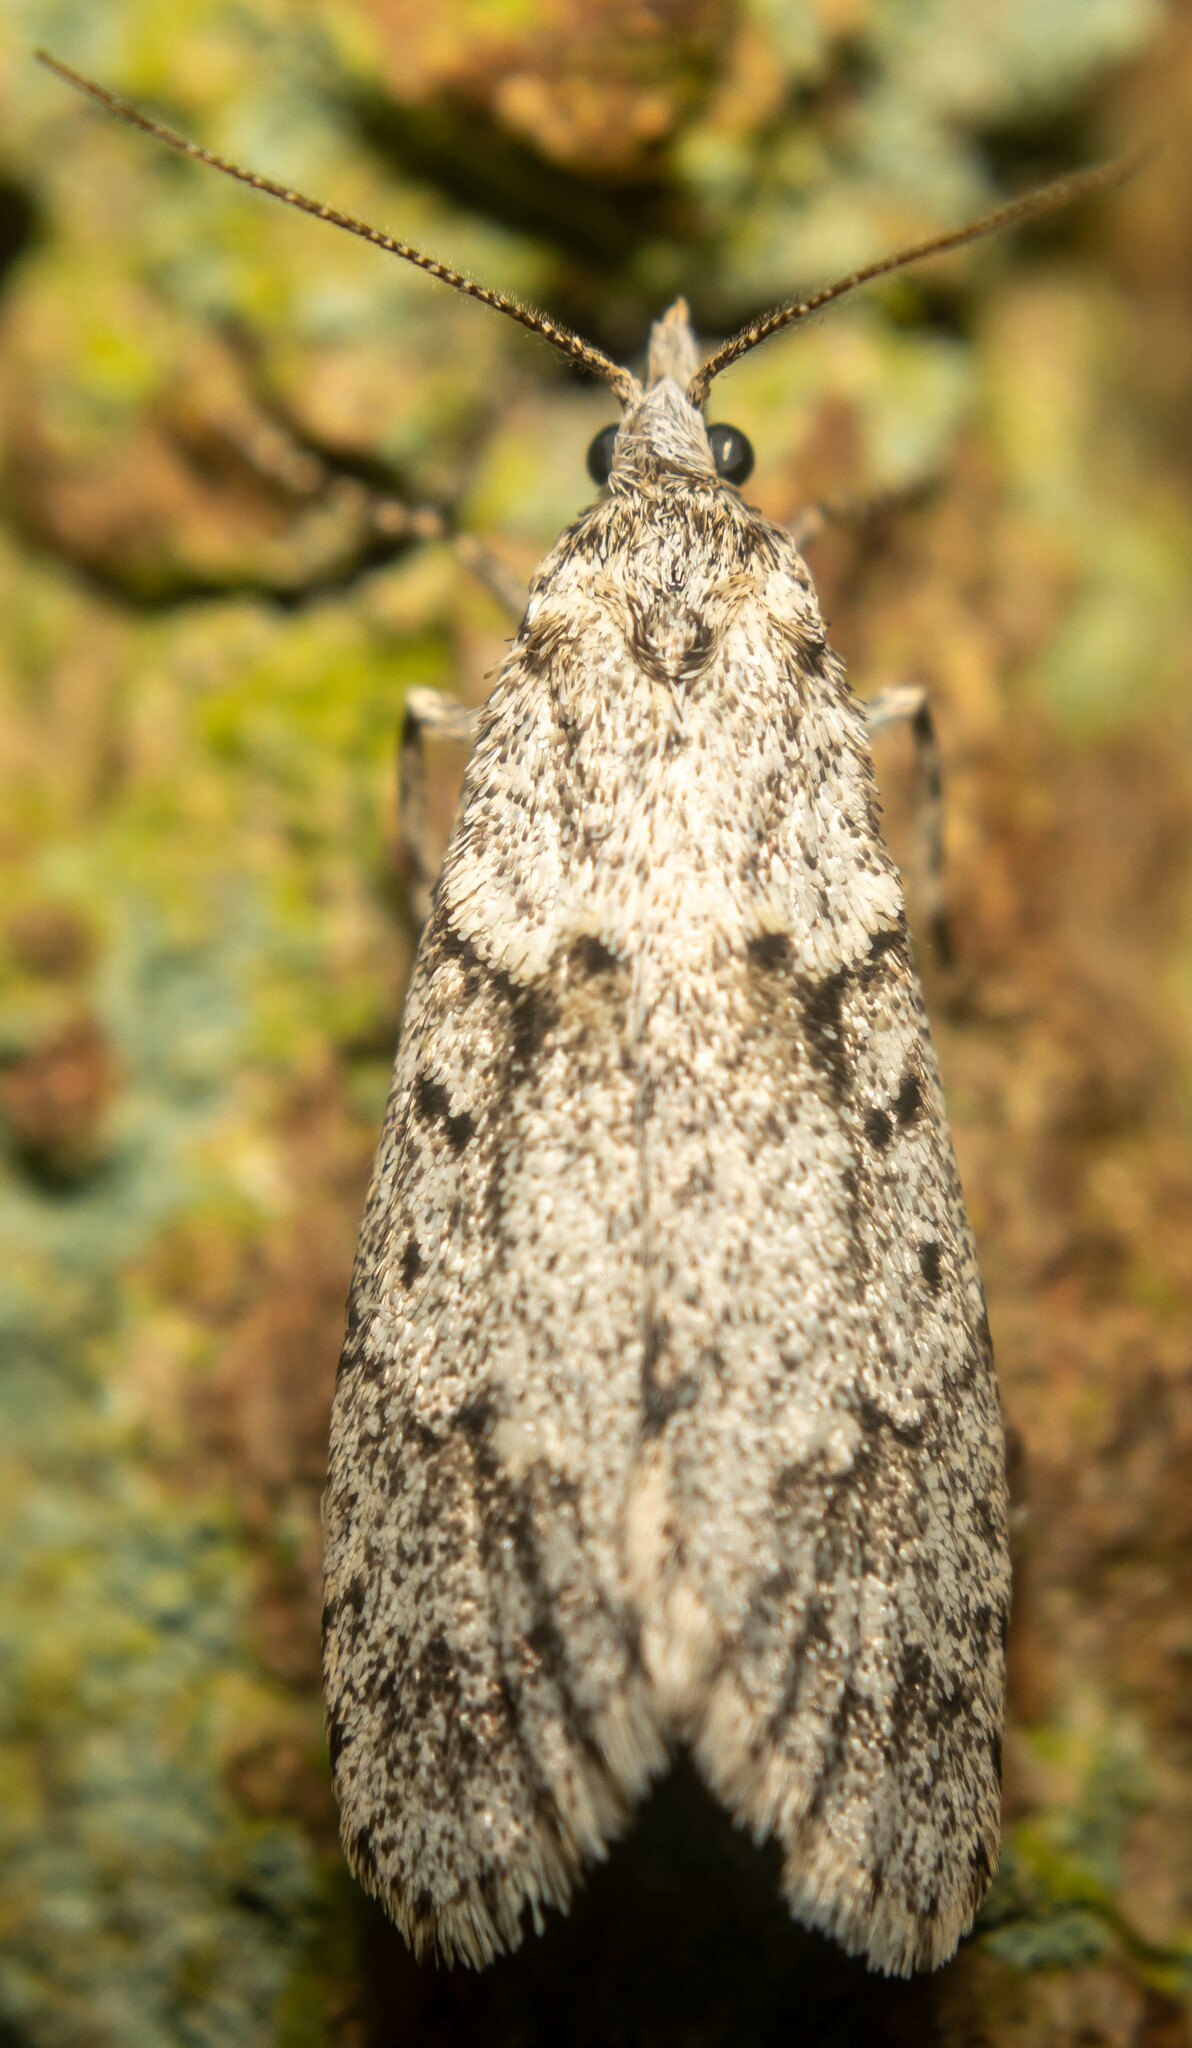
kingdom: Animalia
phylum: Arthropoda
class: Insecta
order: Lepidoptera
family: Lypusidae
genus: Diurnea
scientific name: Diurnea fagella
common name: March tubic
